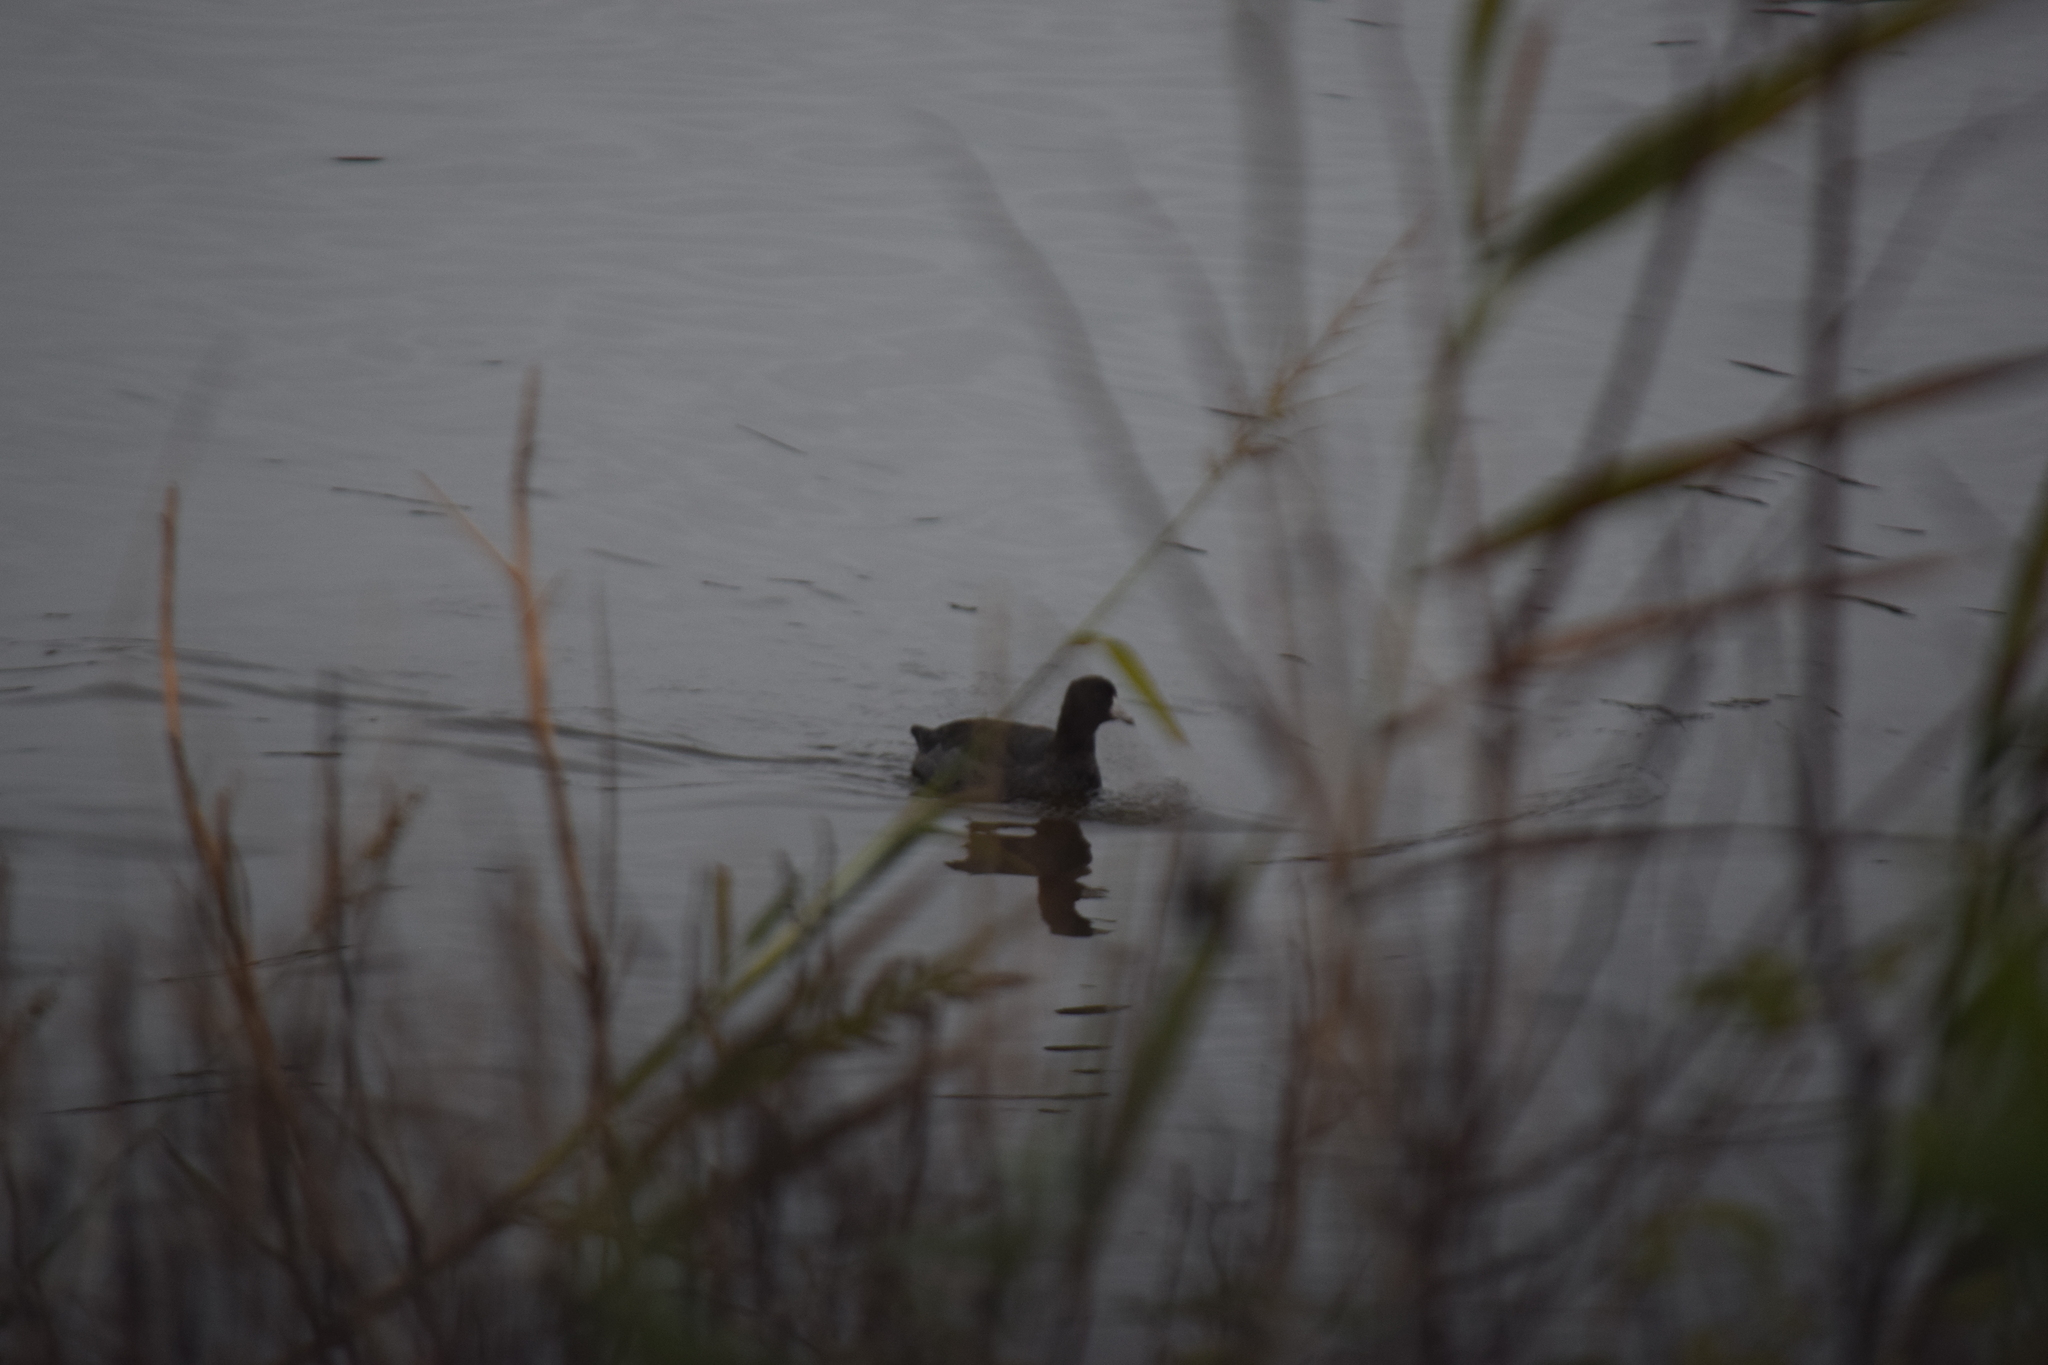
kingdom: Animalia
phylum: Chordata
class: Aves
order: Gruiformes
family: Rallidae
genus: Fulica
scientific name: Fulica americana
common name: American coot
